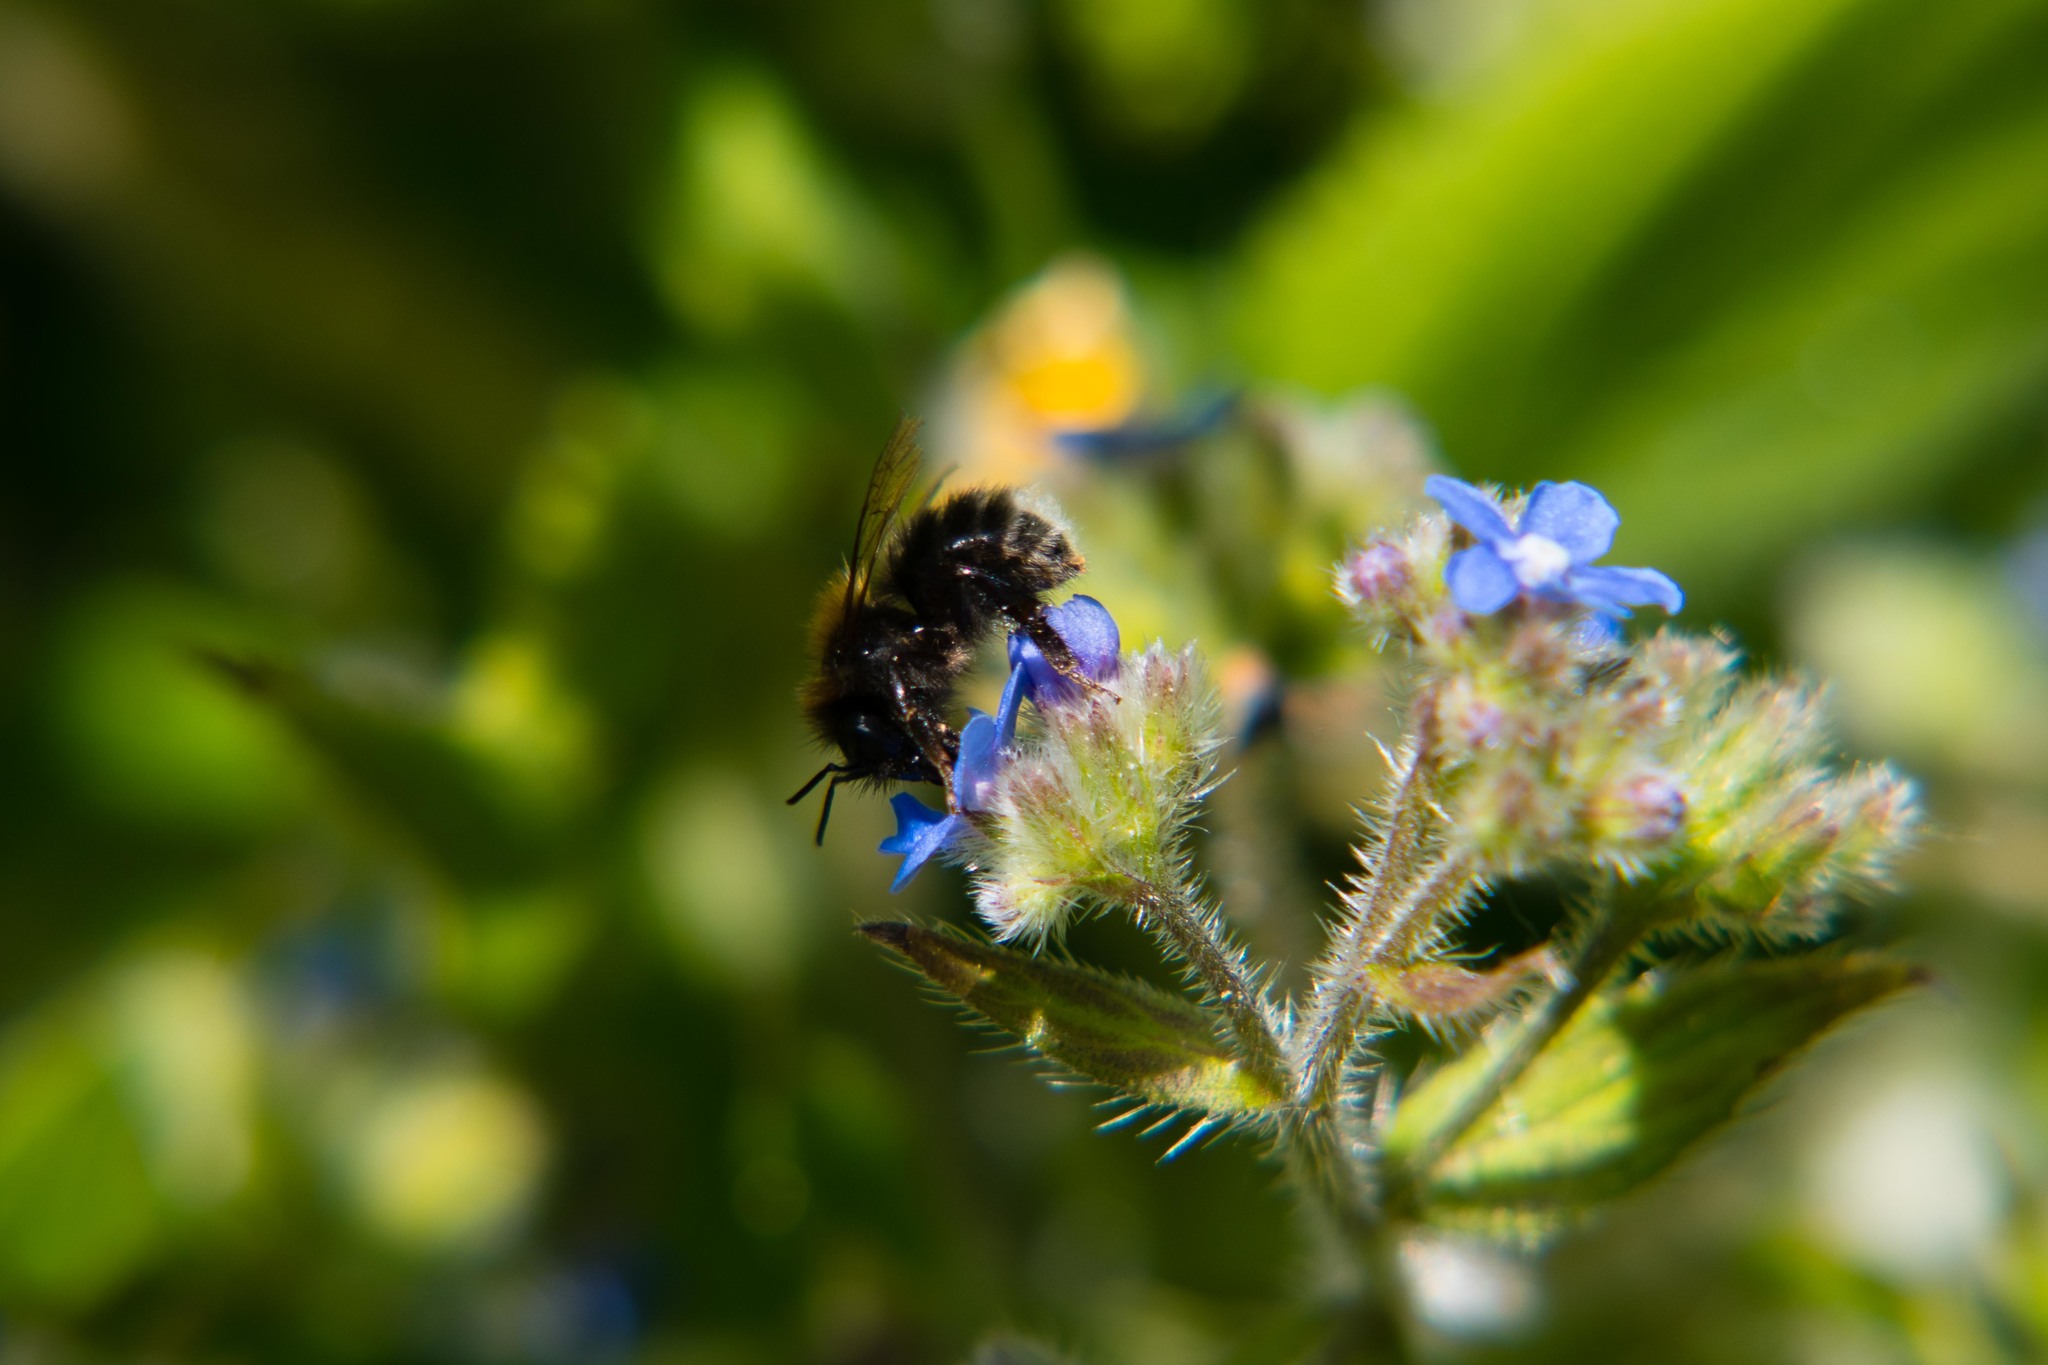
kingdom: Plantae
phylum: Tracheophyta
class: Magnoliopsida
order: Boraginales
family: Boraginaceae
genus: Pentaglottis
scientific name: Pentaglottis sempervirens
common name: Green alkanet
